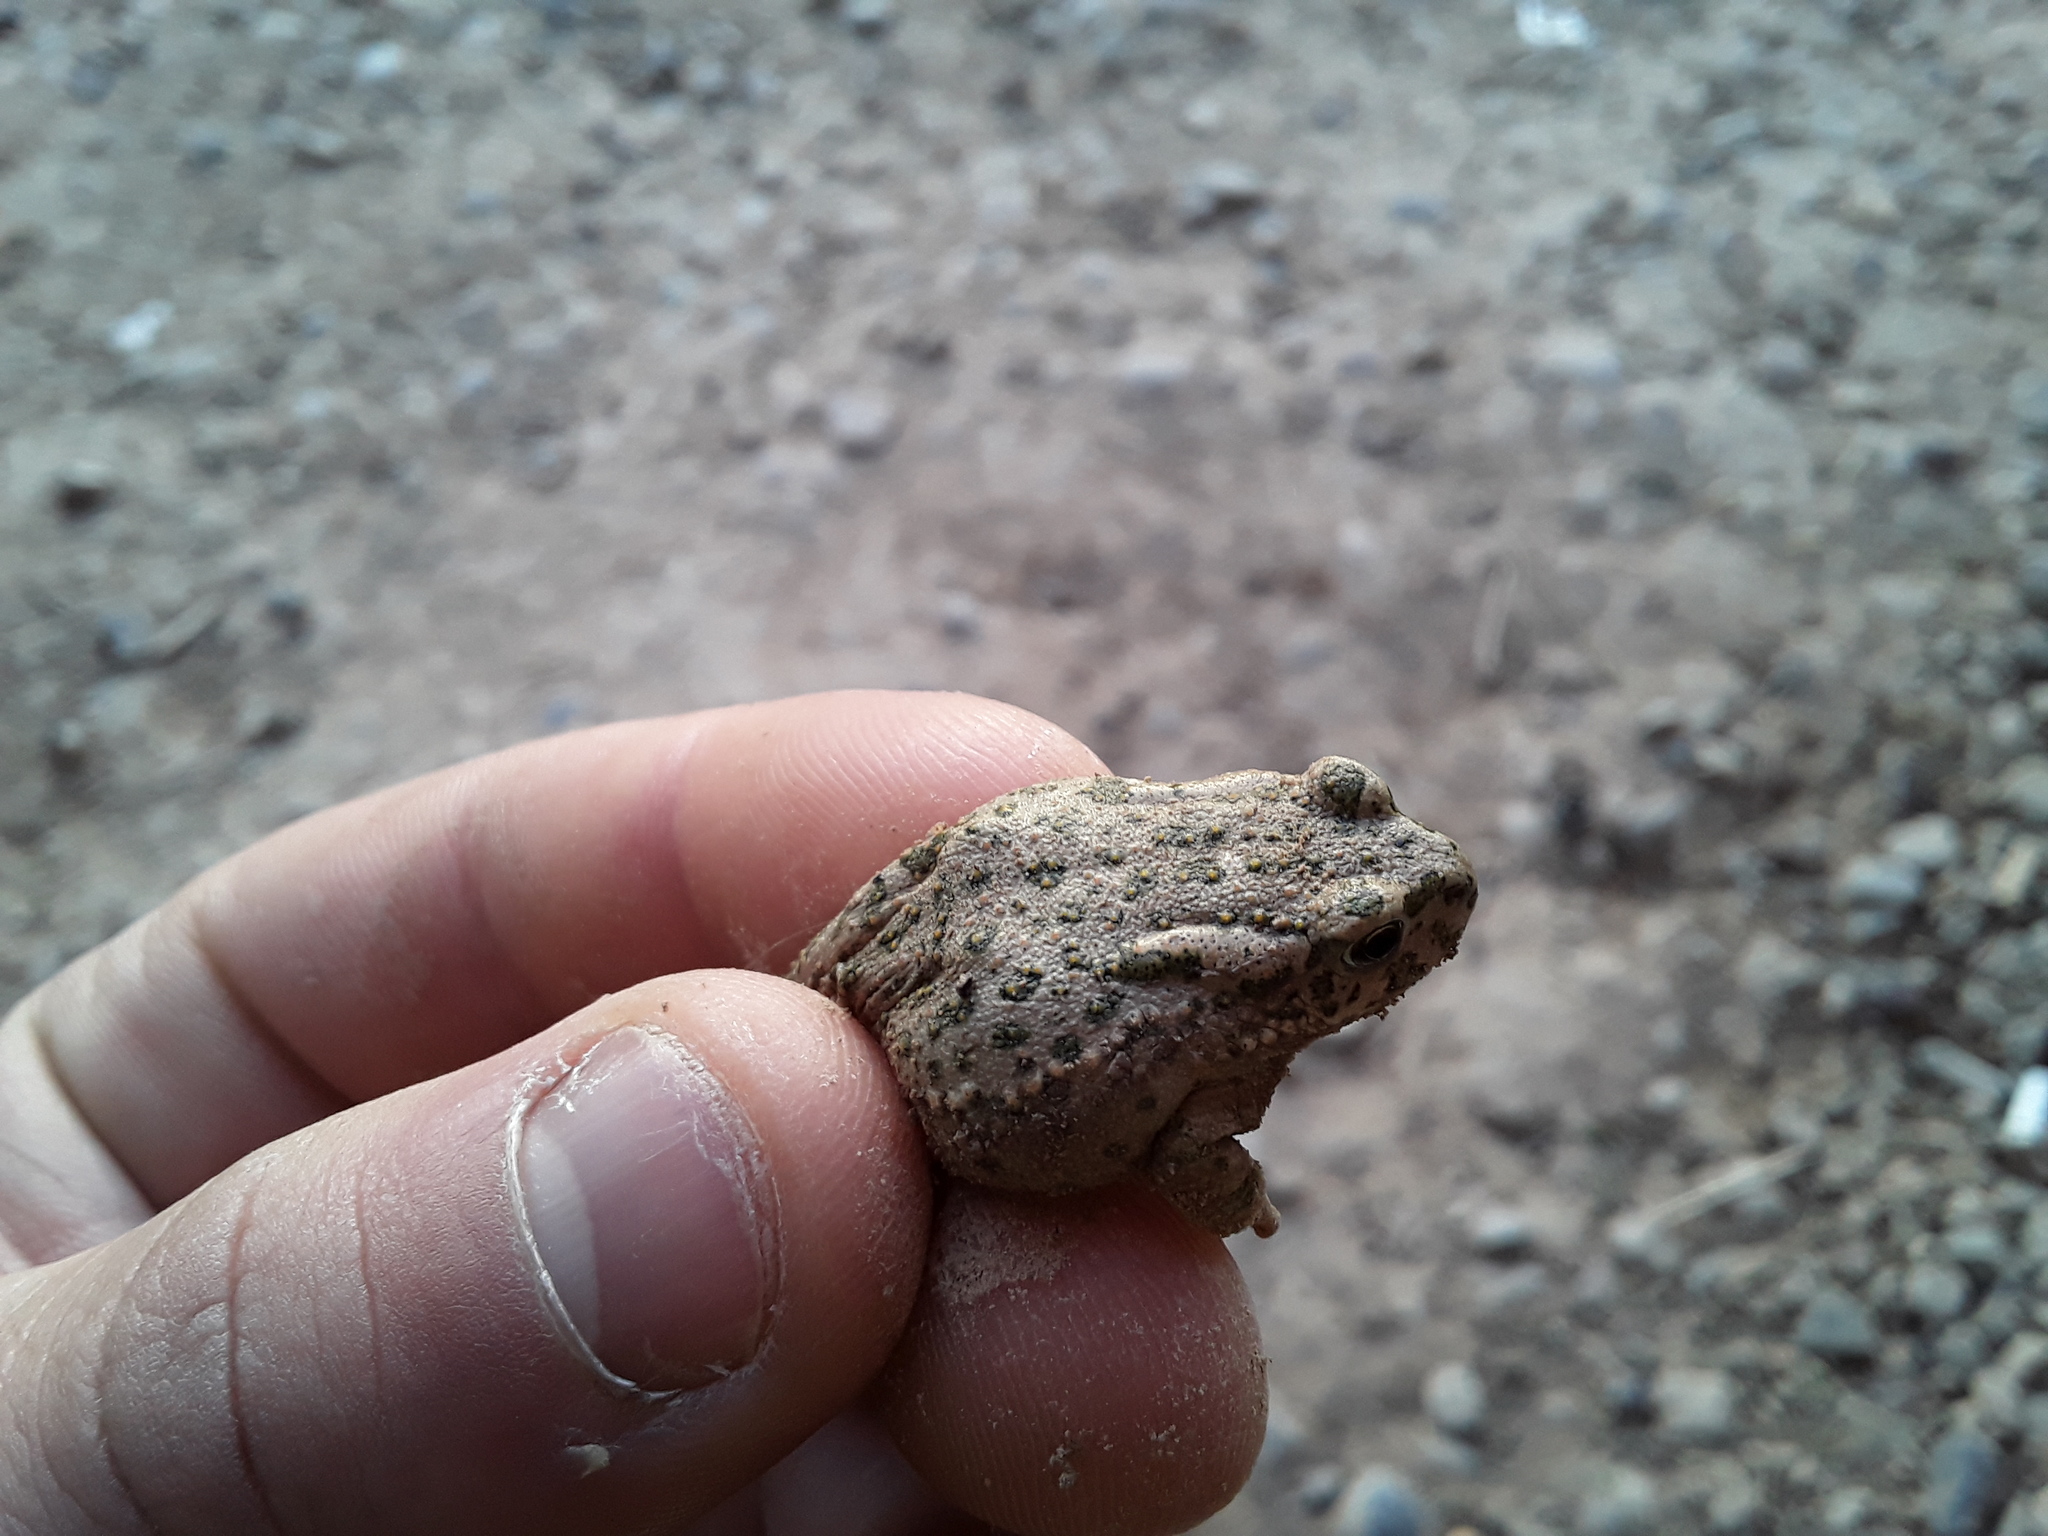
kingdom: Animalia
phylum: Chordata
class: Amphibia
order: Anura
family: Bufonidae
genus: Bufotes
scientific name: Bufotes viridis
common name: European green toad
